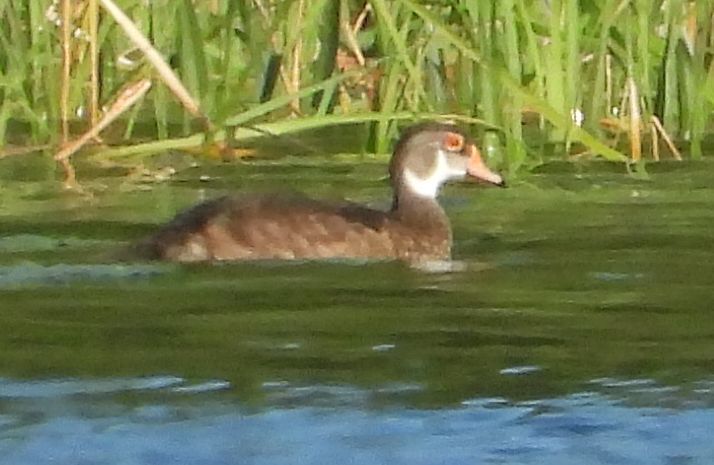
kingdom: Animalia
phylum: Chordata
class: Aves
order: Anseriformes
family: Anatidae
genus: Aix
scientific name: Aix sponsa
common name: Wood duck
